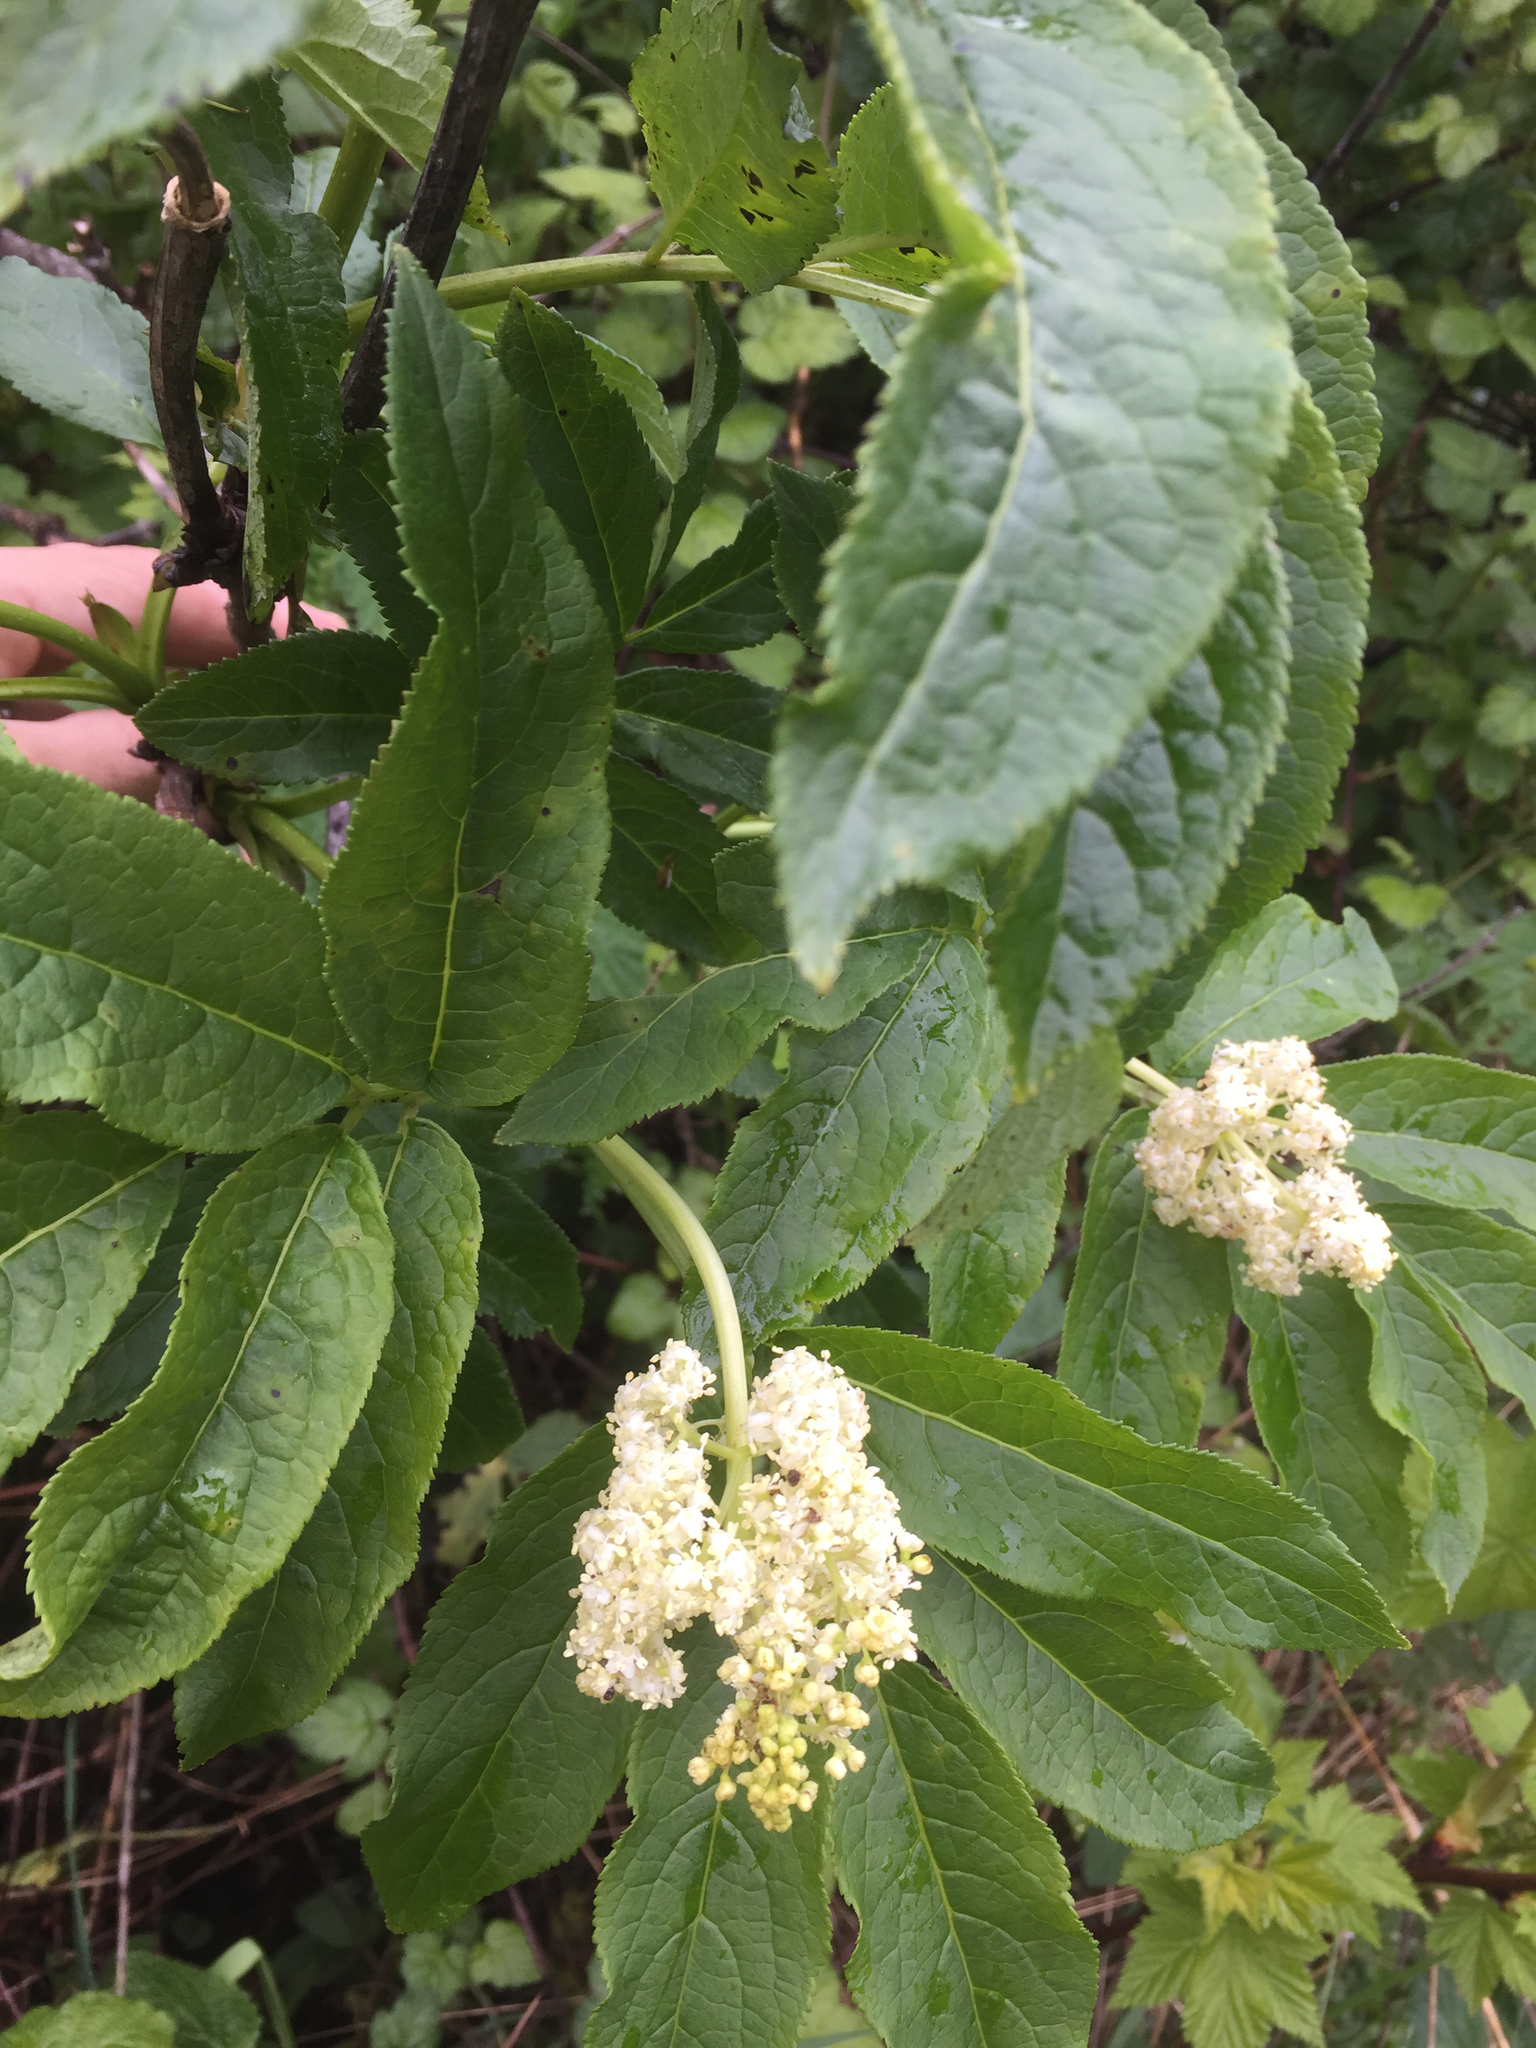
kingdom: Plantae
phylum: Tracheophyta
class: Magnoliopsida
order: Dipsacales
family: Viburnaceae
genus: Sambucus
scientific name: Sambucus racemosa
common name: Red-berried elder
